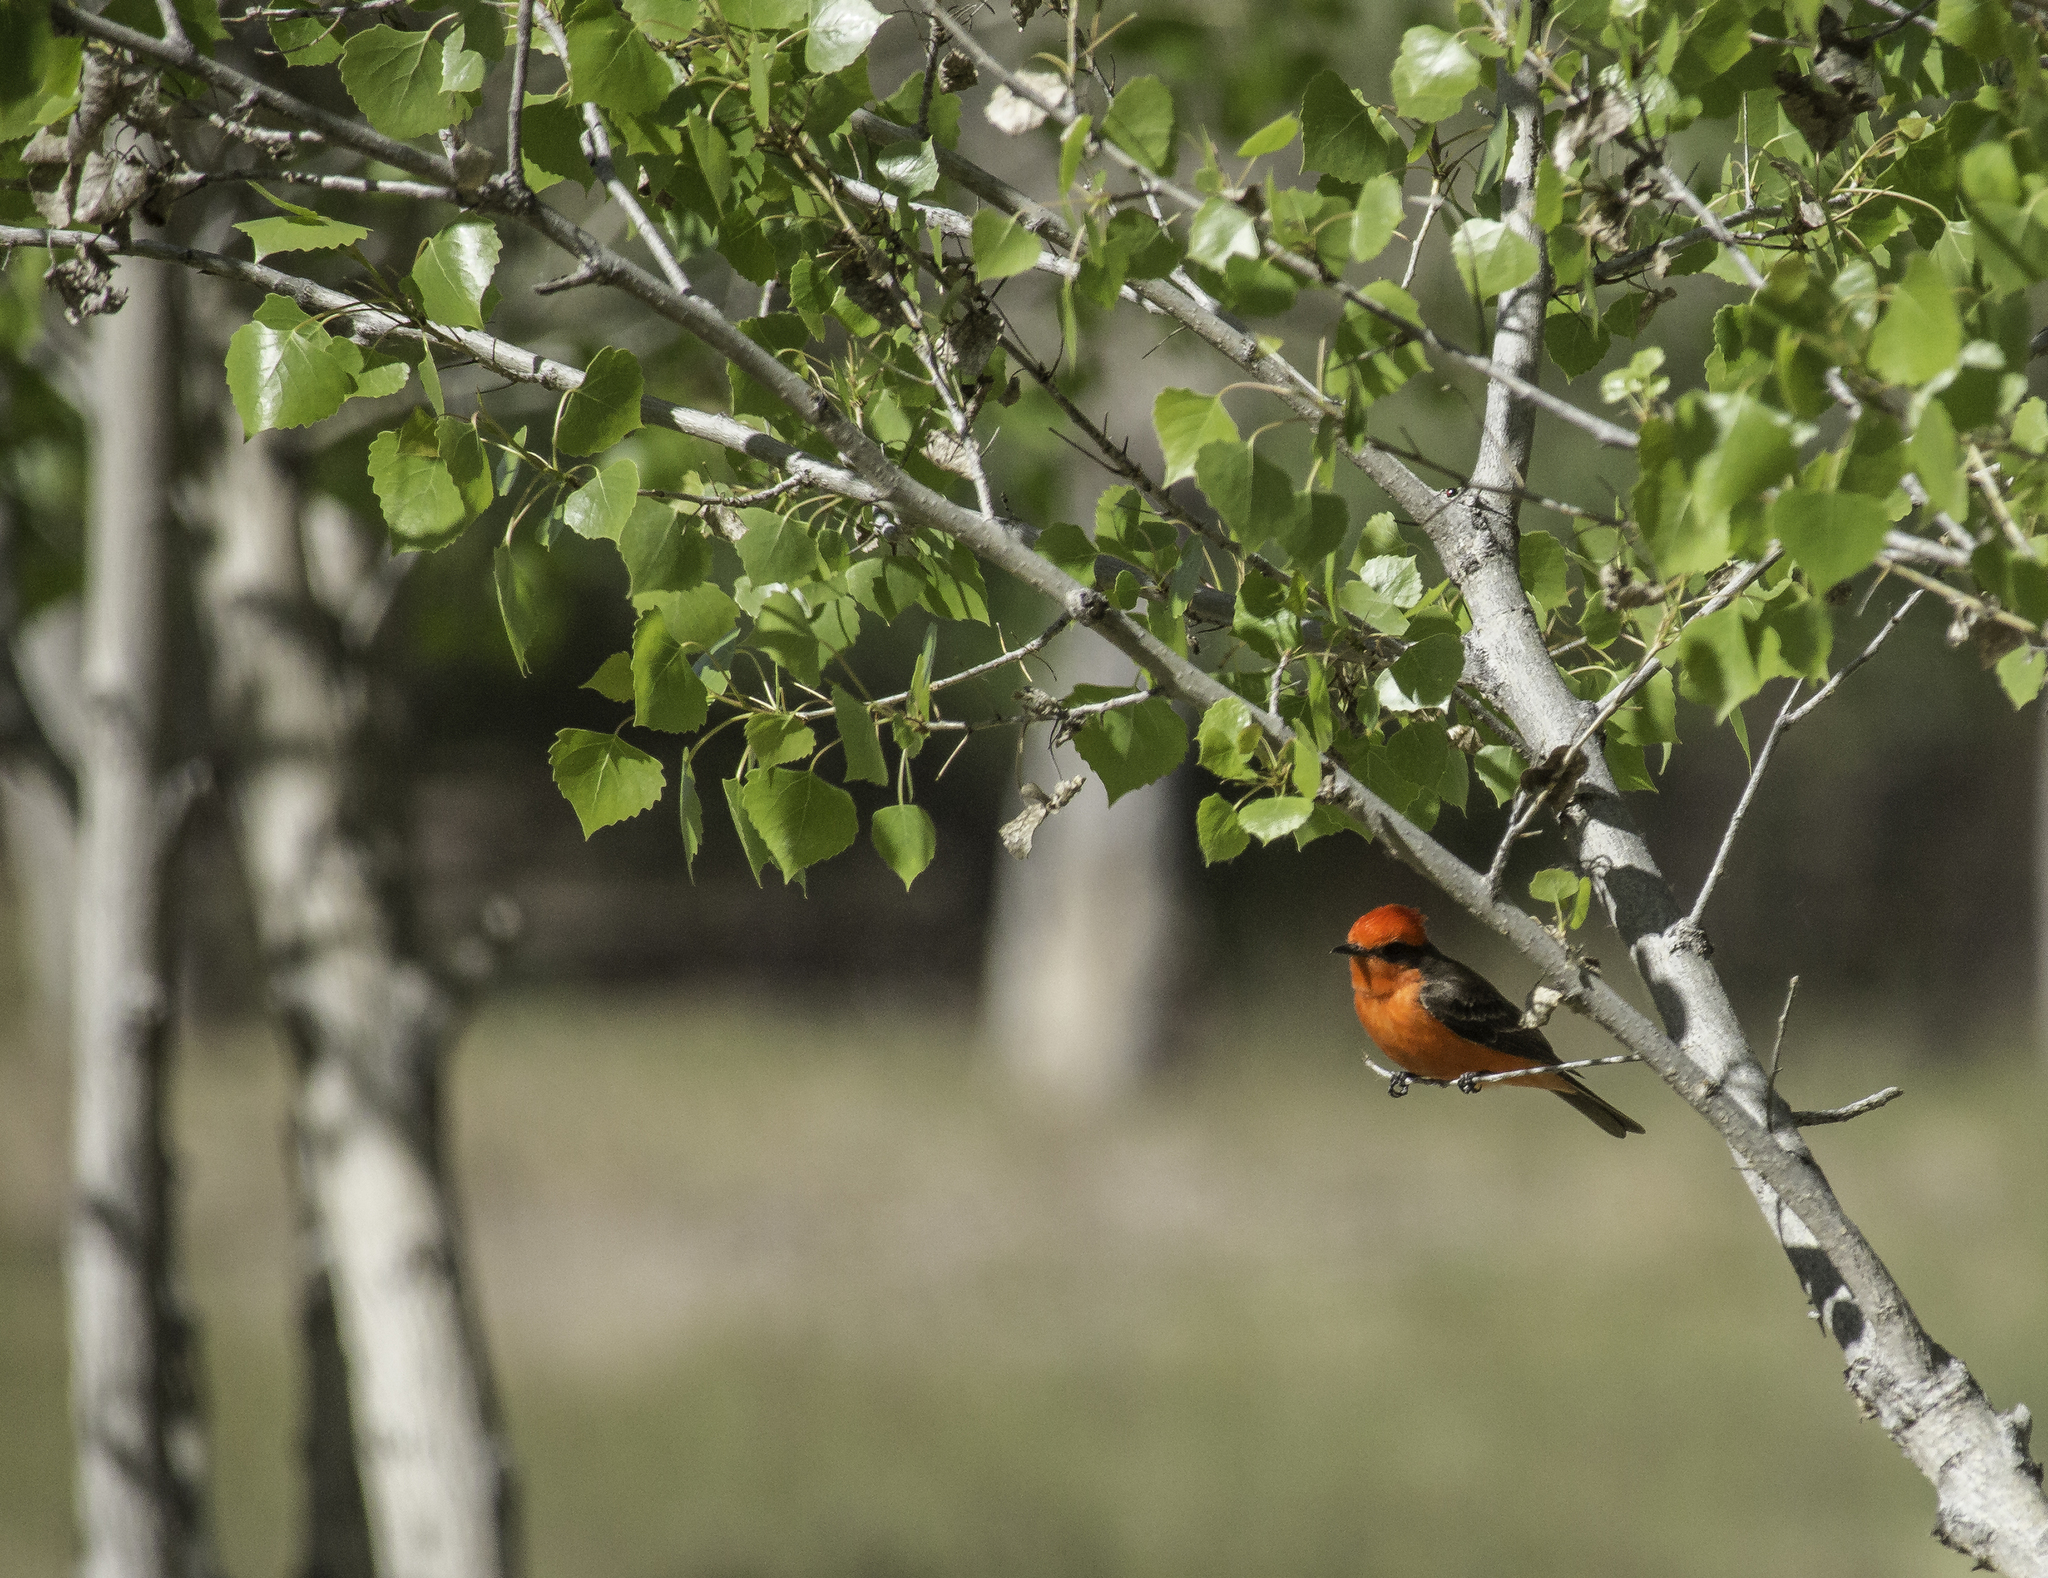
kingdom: Animalia
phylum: Chordata
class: Aves
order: Passeriformes
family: Tyrannidae
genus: Pyrocephalus
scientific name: Pyrocephalus rubinus
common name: Vermilion flycatcher
